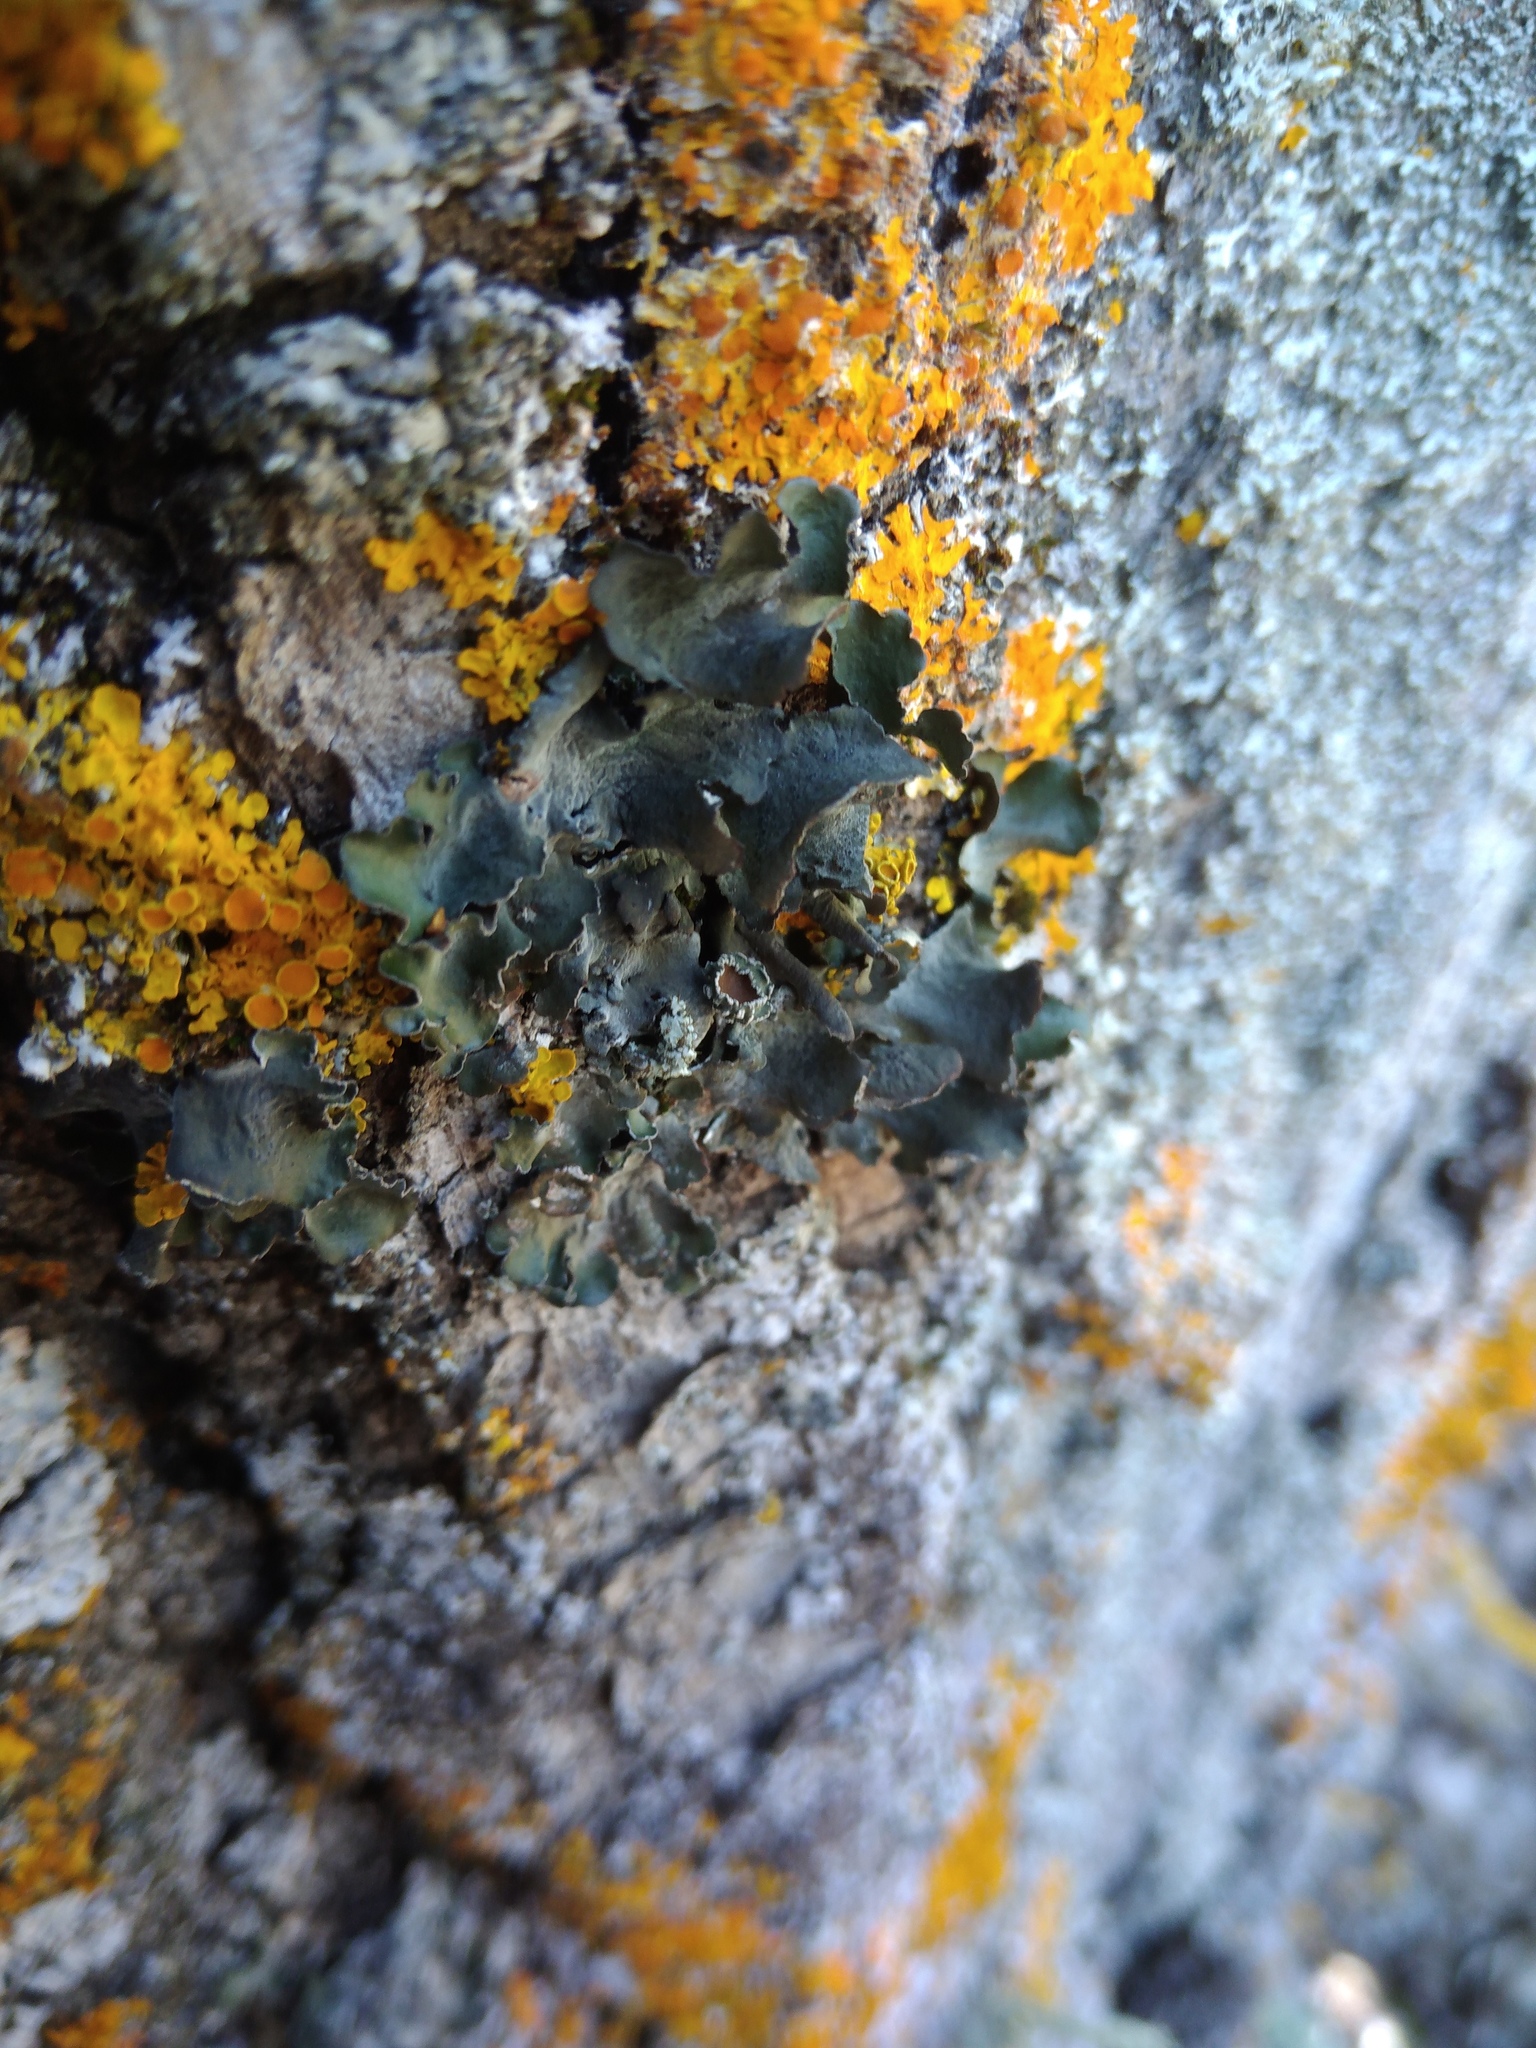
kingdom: Fungi
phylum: Ascomycota
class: Lecanoromycetes
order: Lecanorales
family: Parmeliaceae
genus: Pleurosticta
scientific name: Pleurosticta acetabulum
